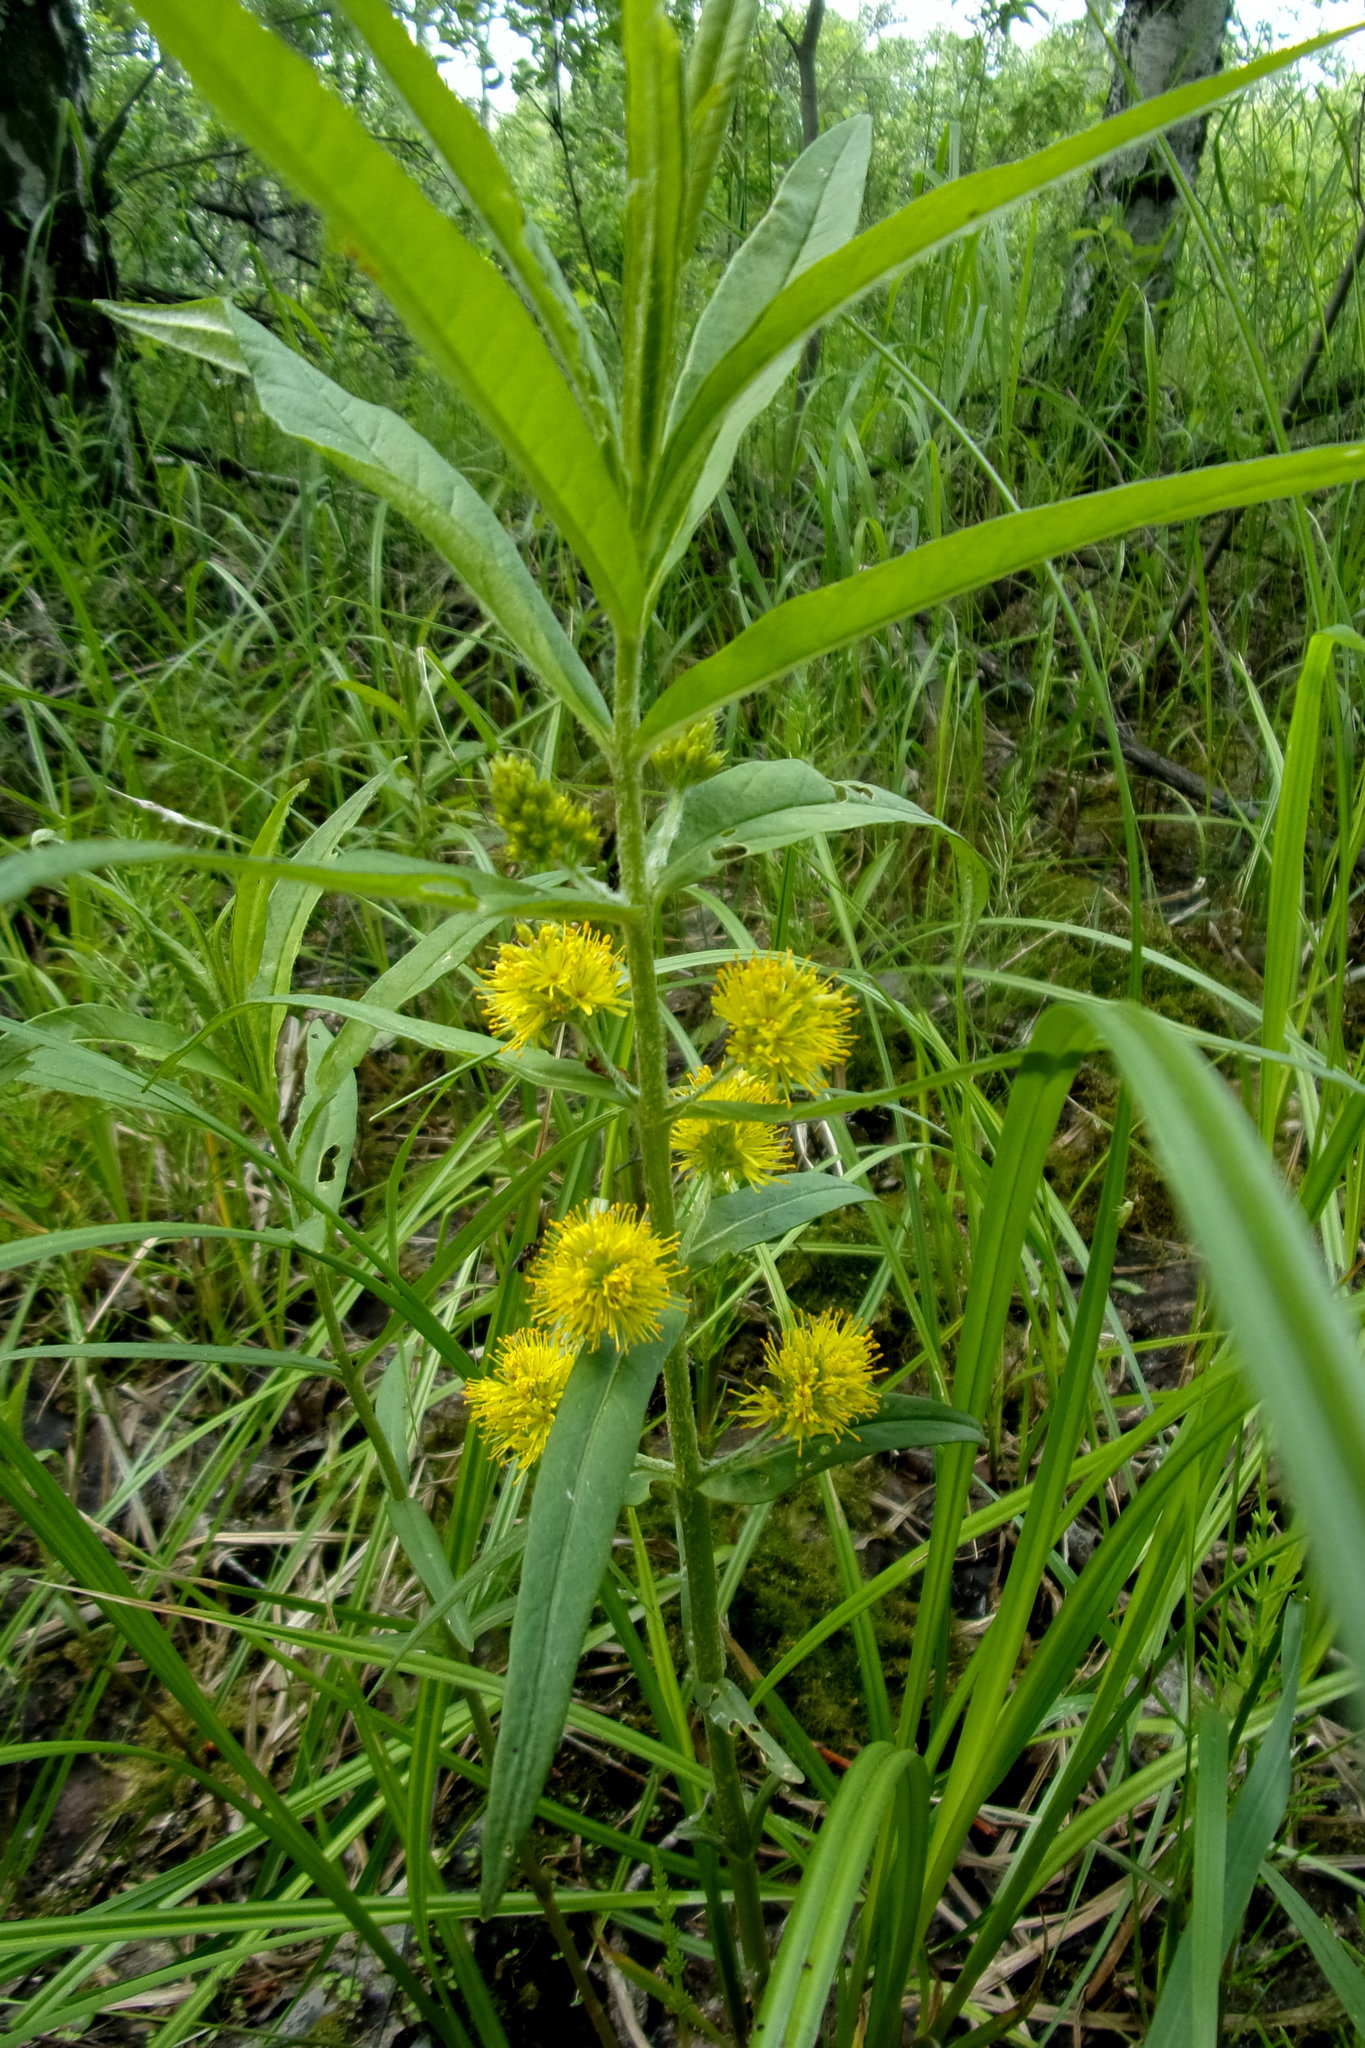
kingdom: Plantae
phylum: Tracheophyta
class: Magnoliopsida
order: Ericales
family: Primulaceae
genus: Lysimachia
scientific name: Lysimachia thyrsiflora
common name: Tufted loosestrife
